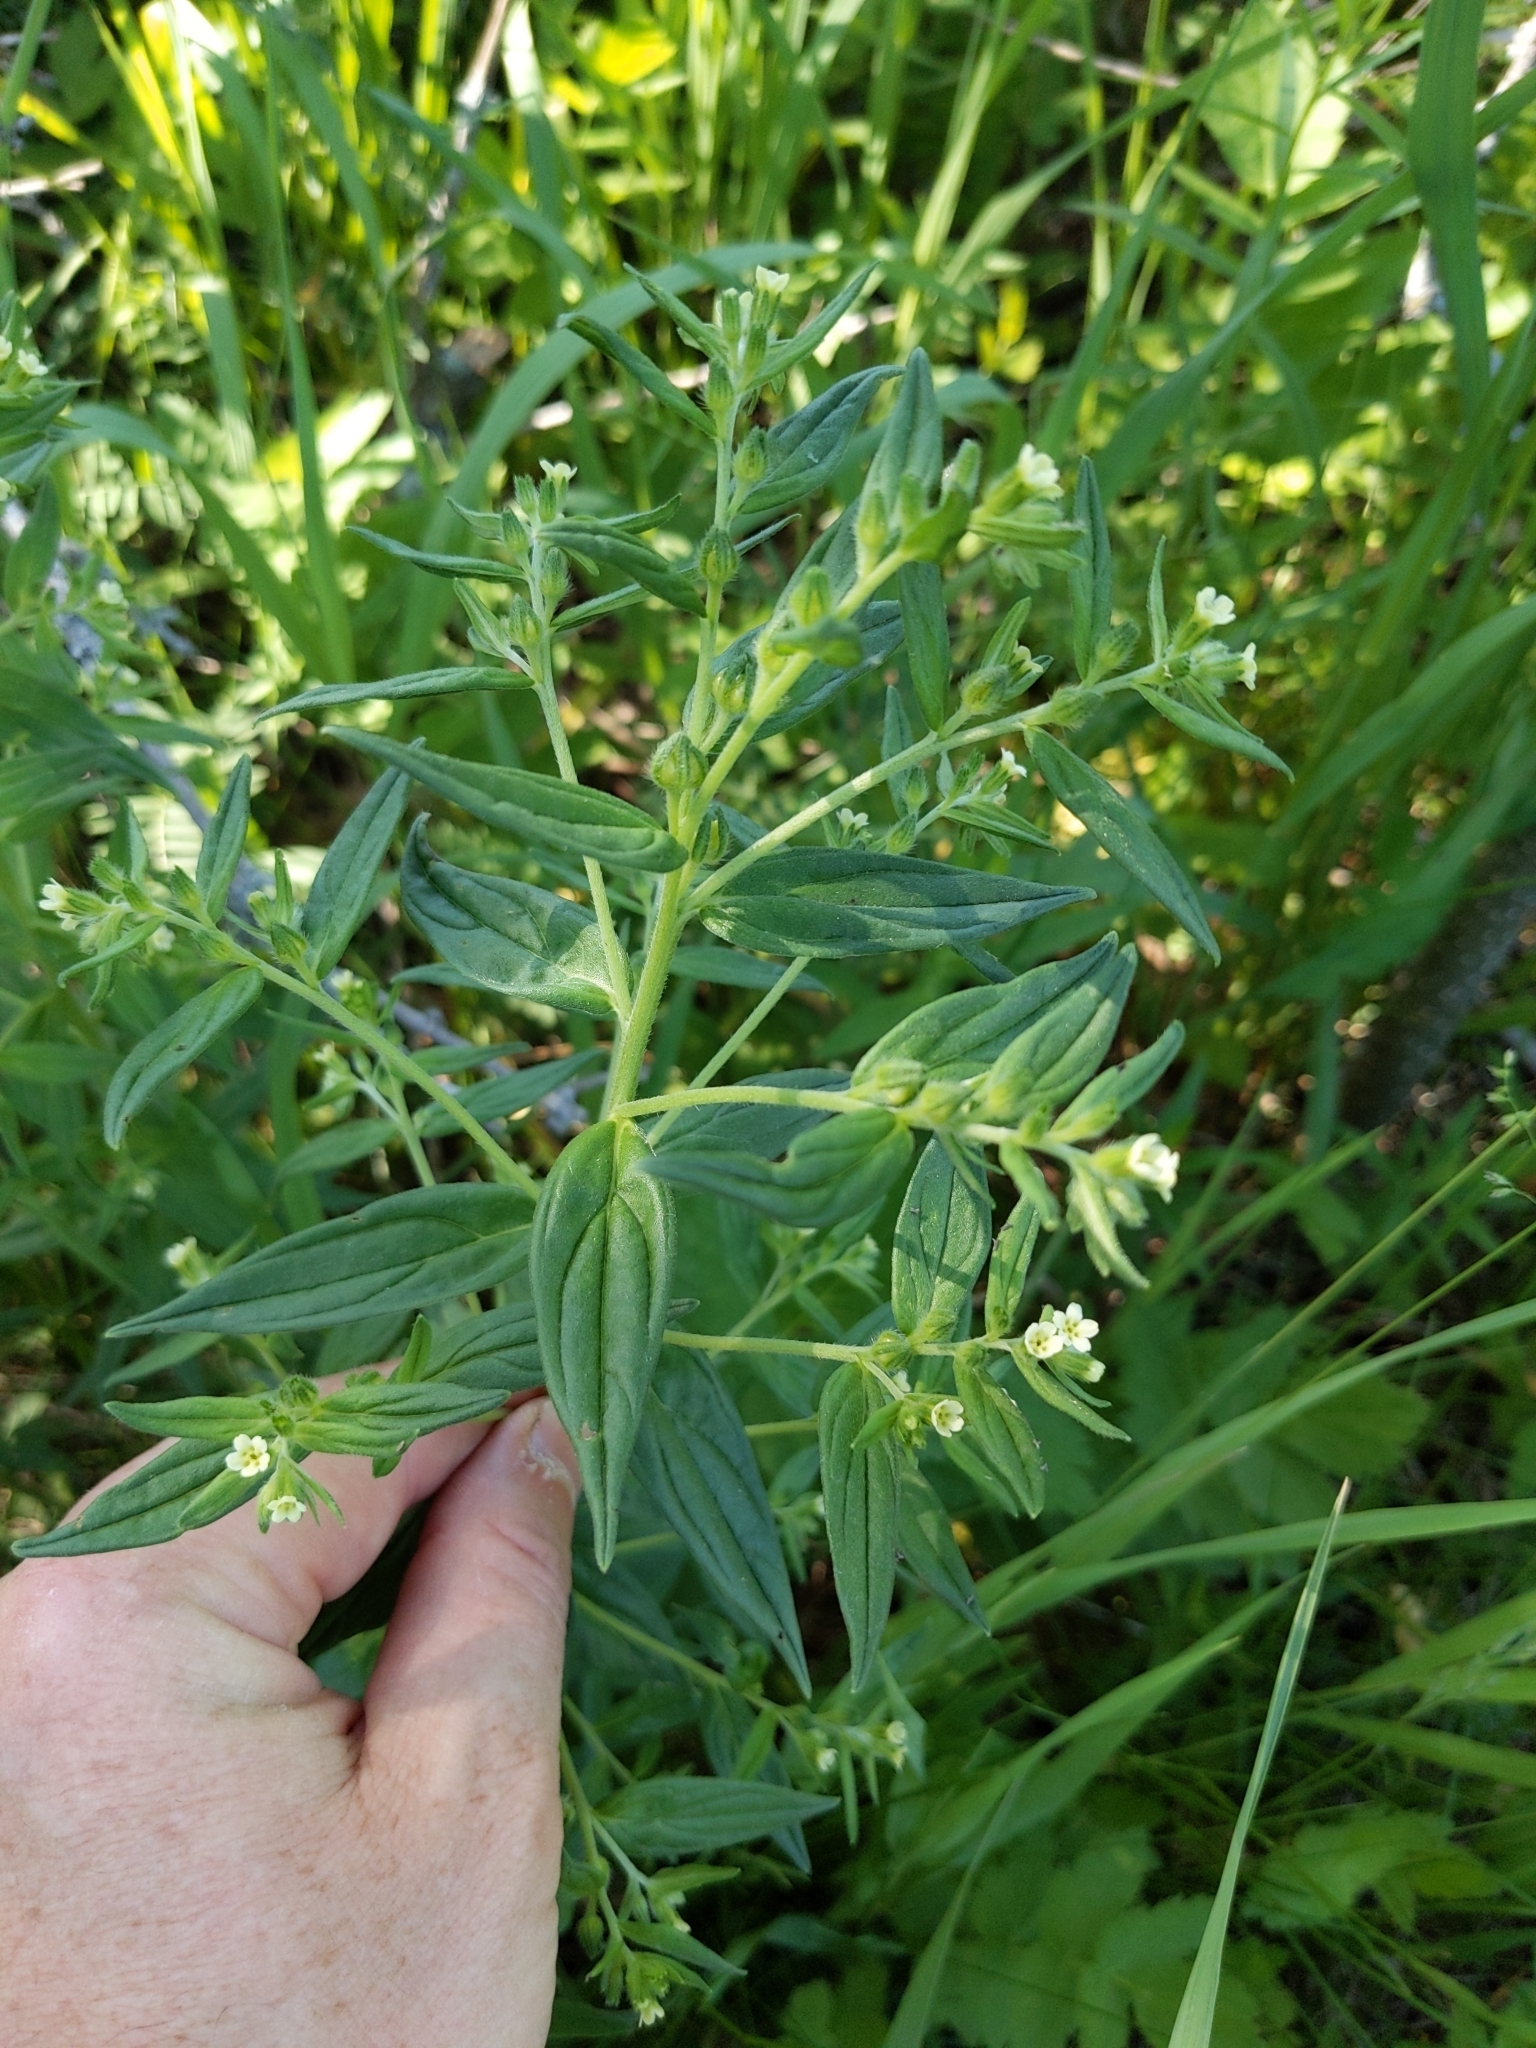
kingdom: Plantae
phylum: Tracheophyta
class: Magnoliopsida
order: Boraginales
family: Boraginaceae
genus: Lithospermum
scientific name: Lithospermum officinale
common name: Common gromwell
